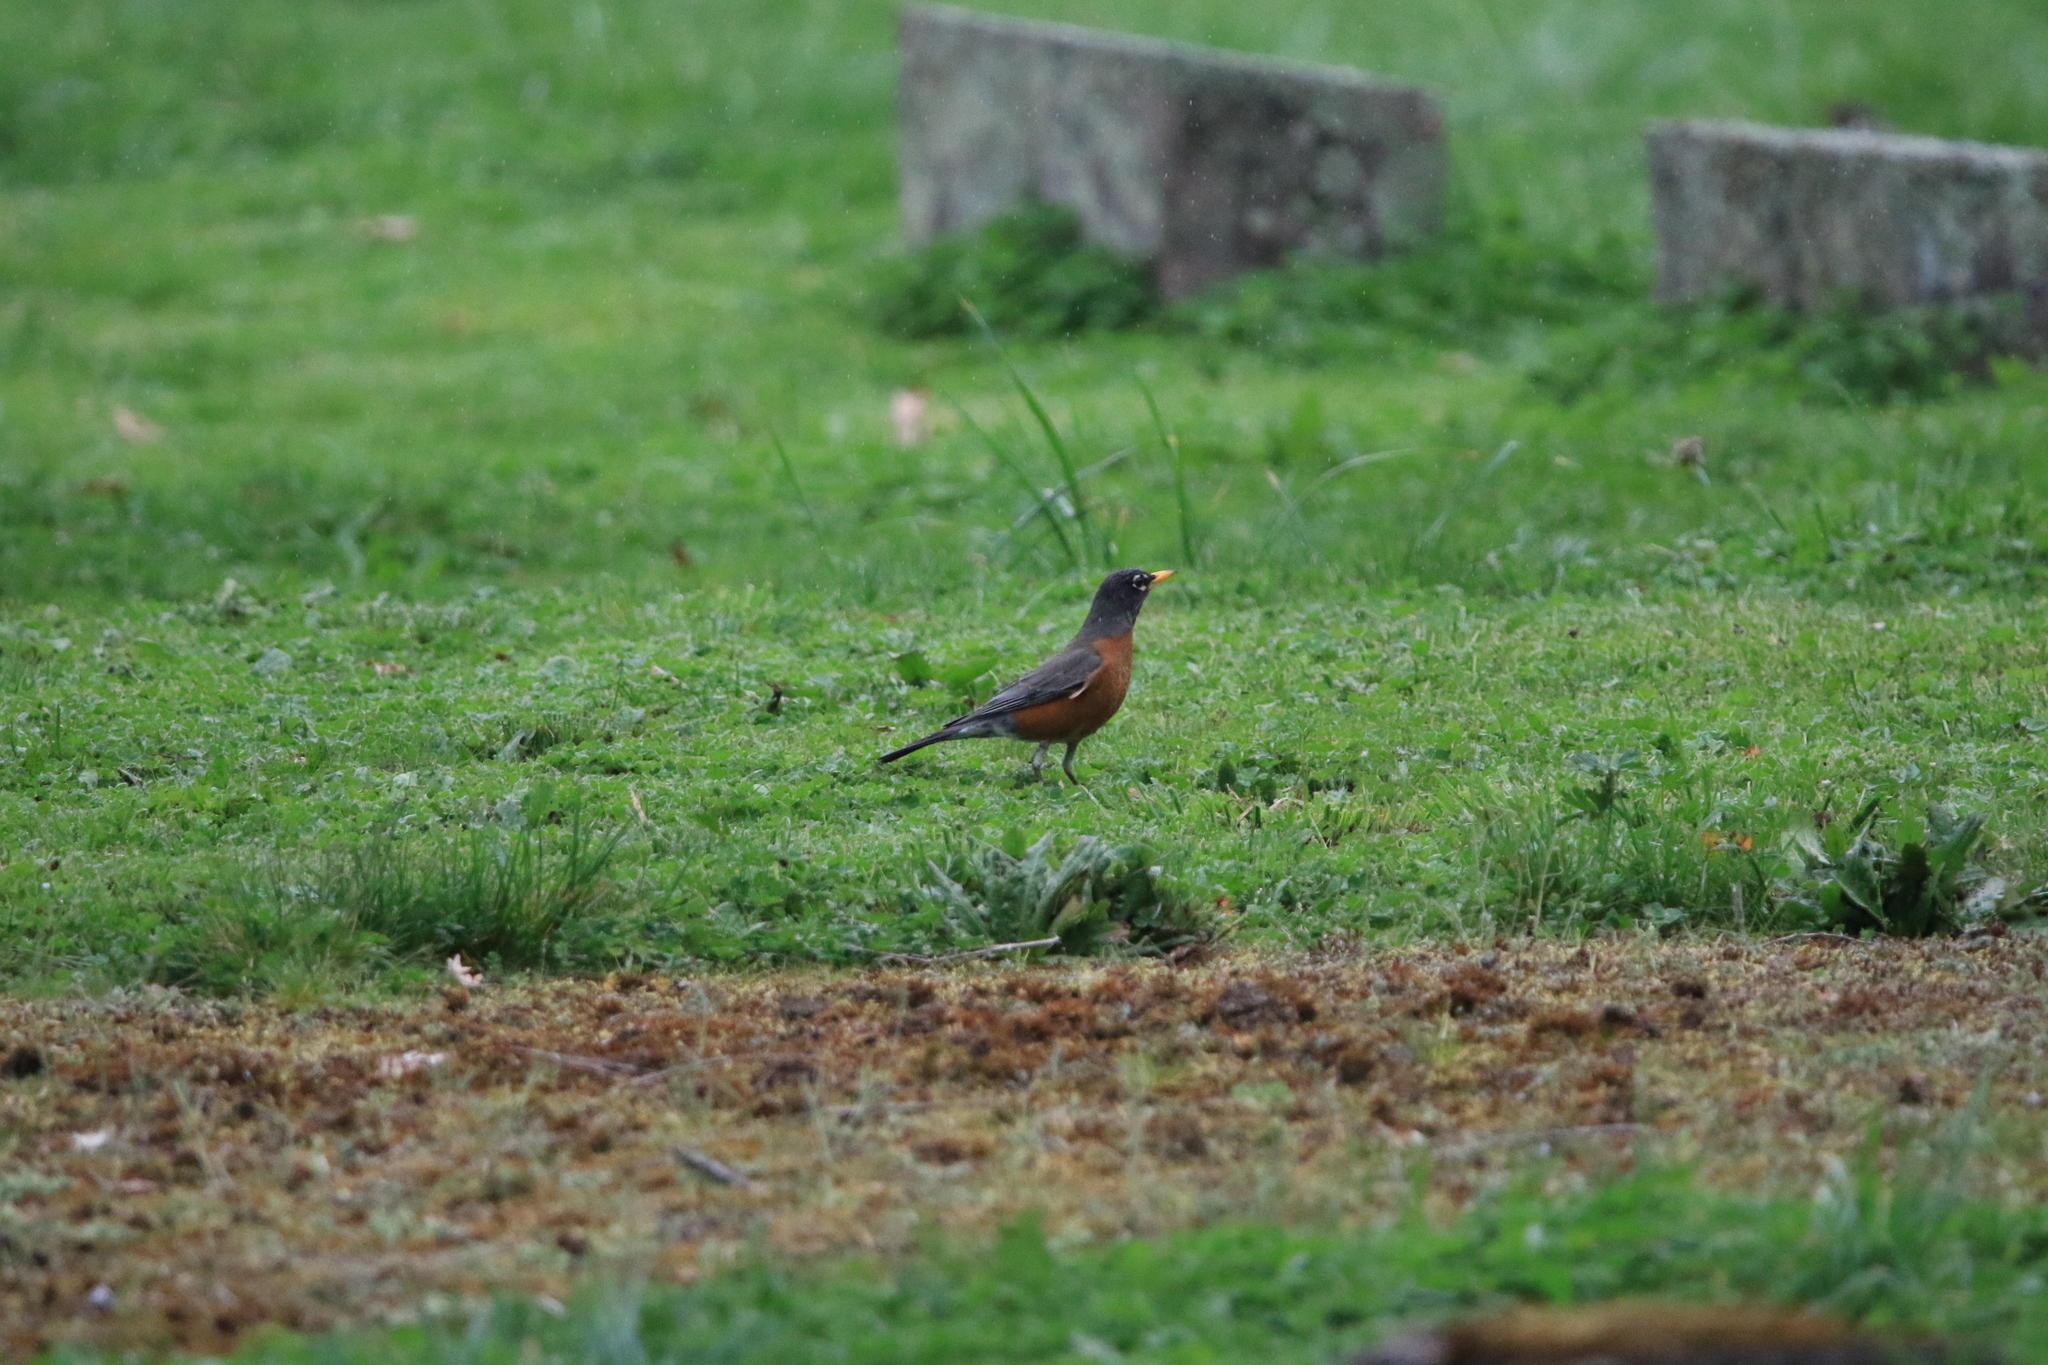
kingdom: Animalia
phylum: Chordata
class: Aves
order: Passeriformes
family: Turdidae
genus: Turdus
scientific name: Turdus migratorius
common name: American robin
